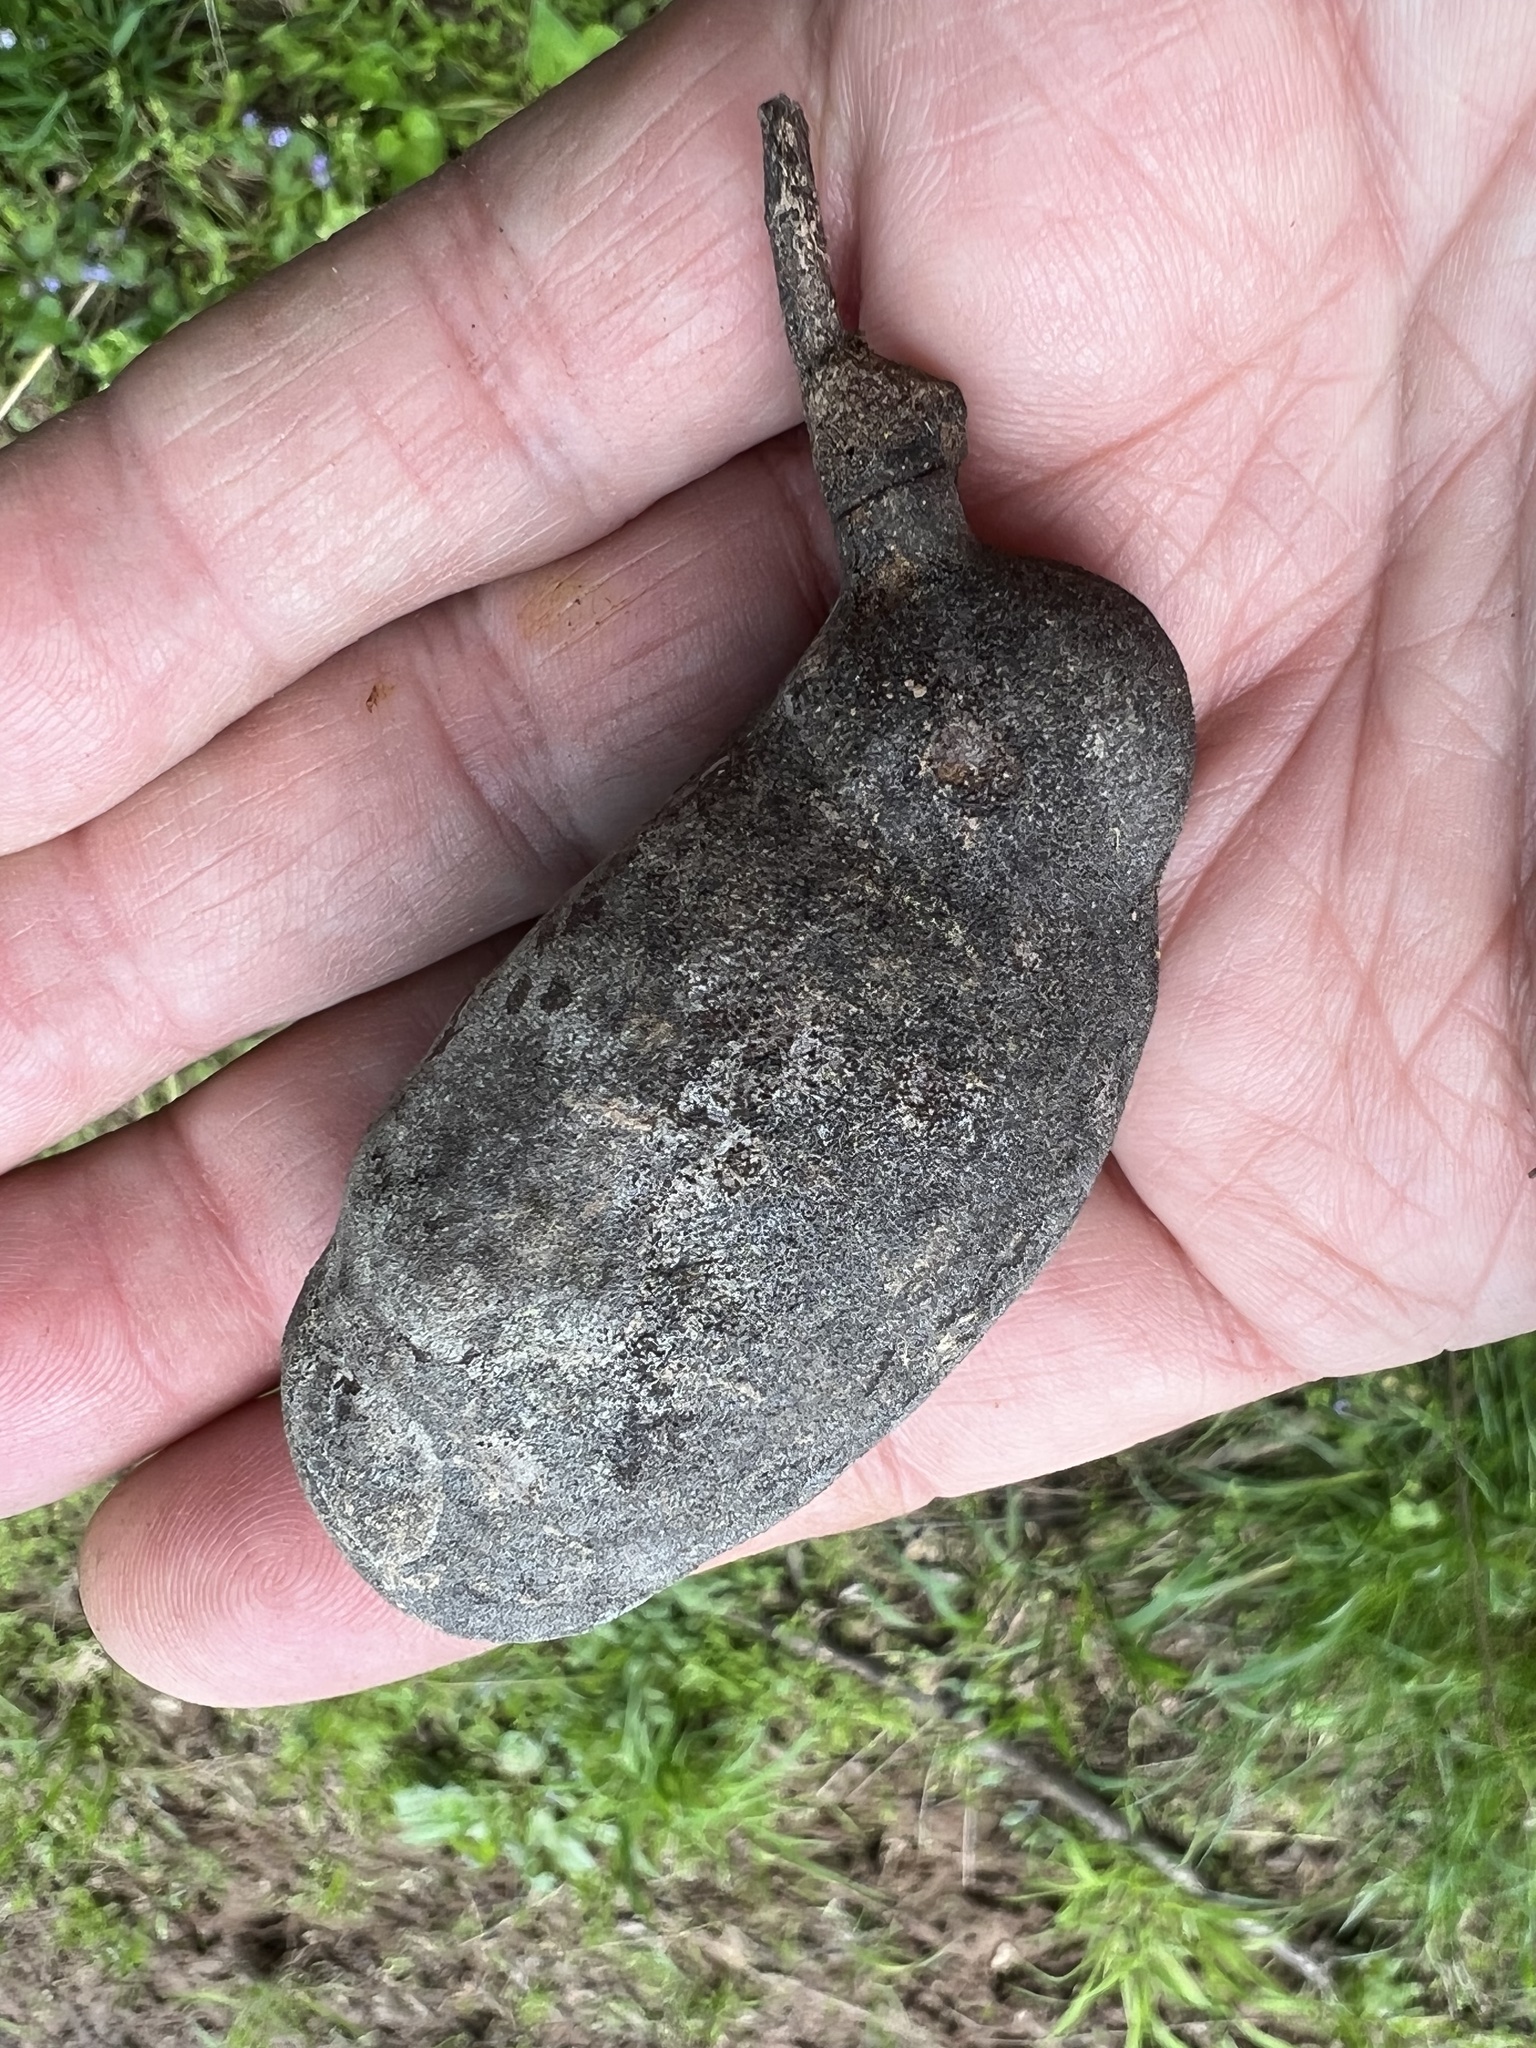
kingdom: Plantae
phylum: Tracheophyta
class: Magnoliopsida
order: Magnoliales
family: Annonaceae
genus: Asimina
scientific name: Asimina triloba
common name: Dog-banana
